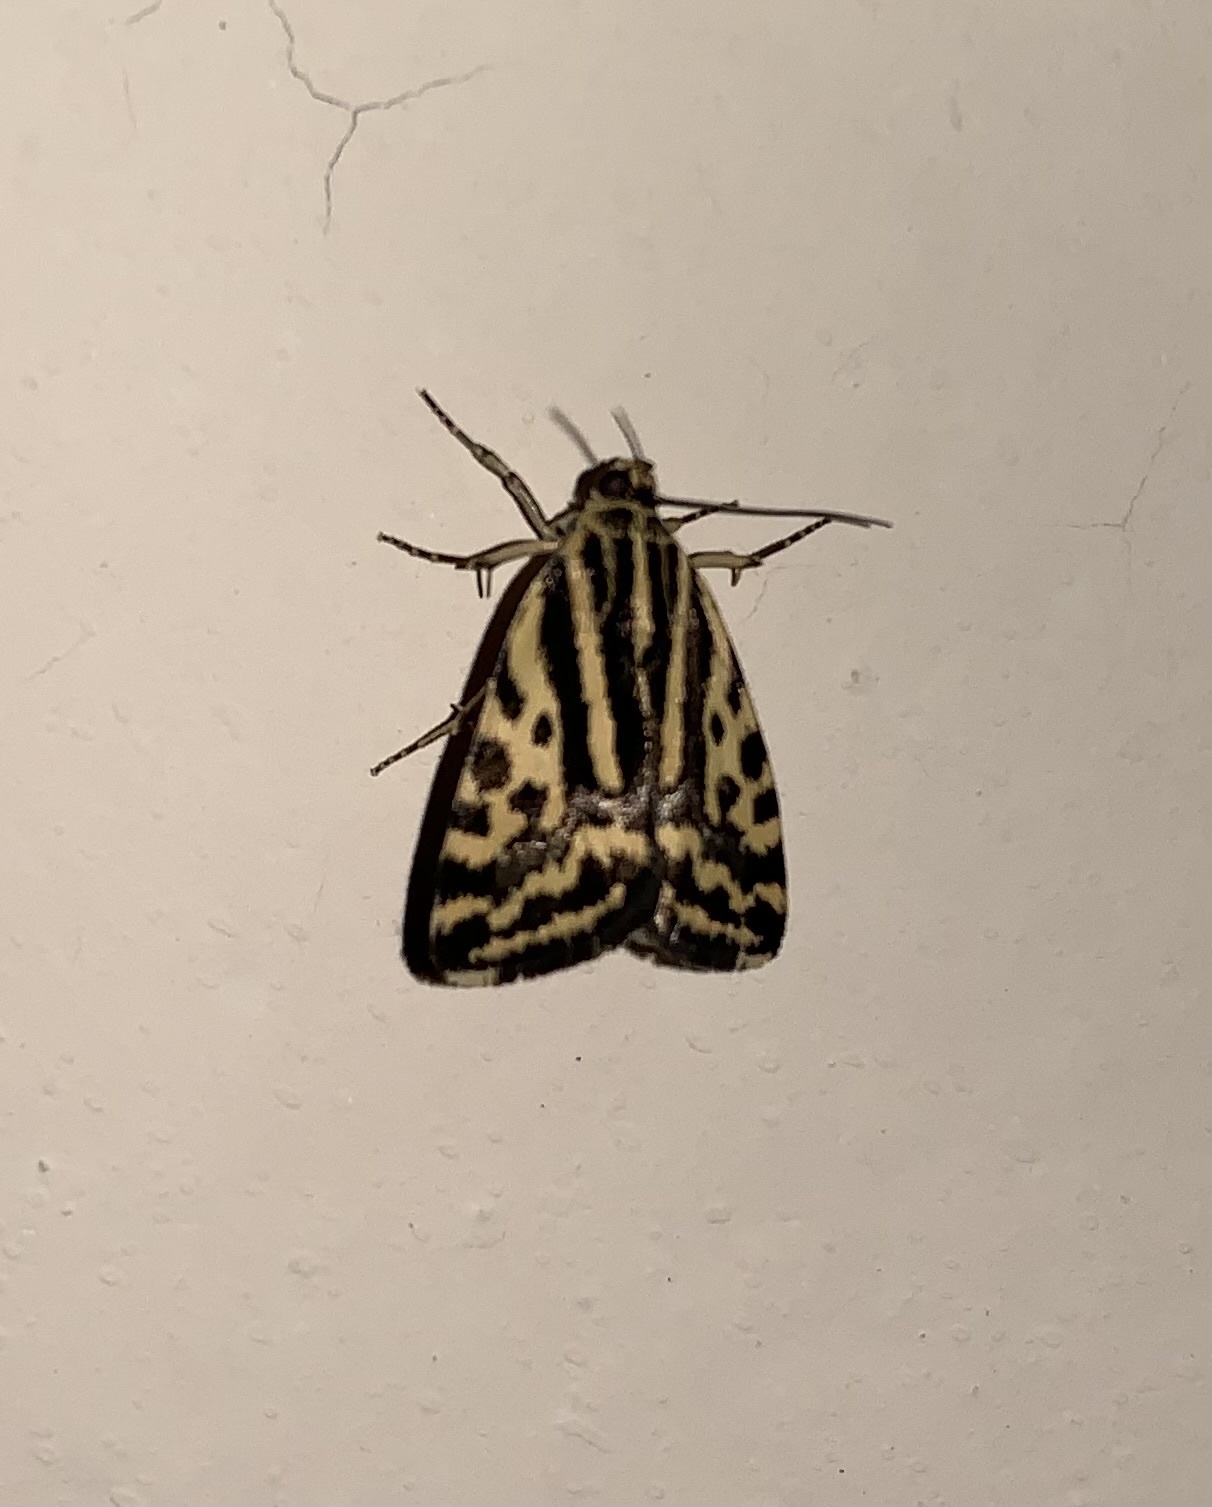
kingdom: Animalia
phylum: Arthropoda
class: Insecta
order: Lepidoptera
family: Noctuidae
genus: Acontia
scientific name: Acontia trabealis
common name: Spotted sulphur
